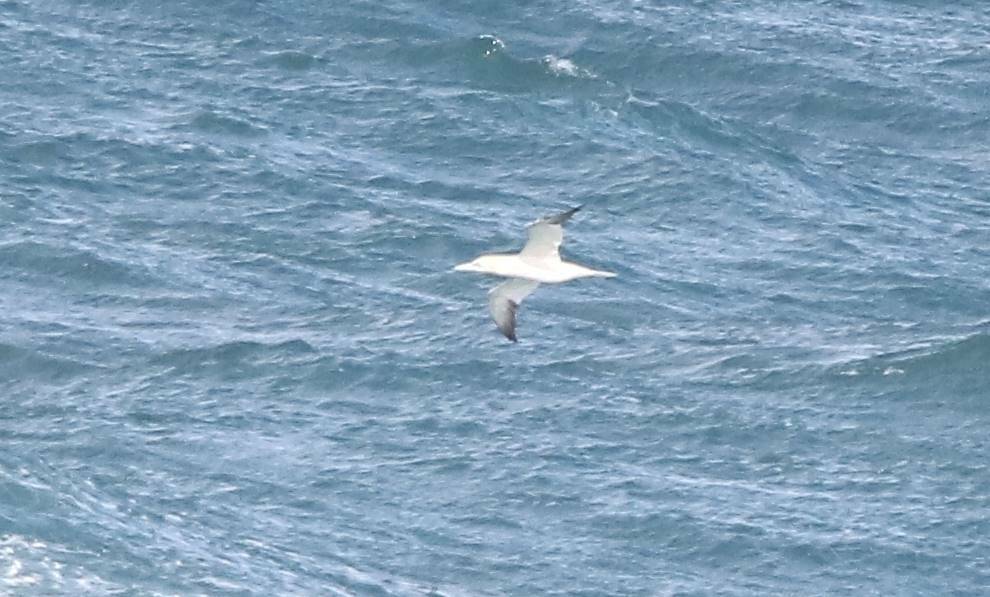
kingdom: Animalia
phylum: Chordata
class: Aves
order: Suliformes
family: Sulidae
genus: Morus
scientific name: Morus bassanus
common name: Northern gannet
